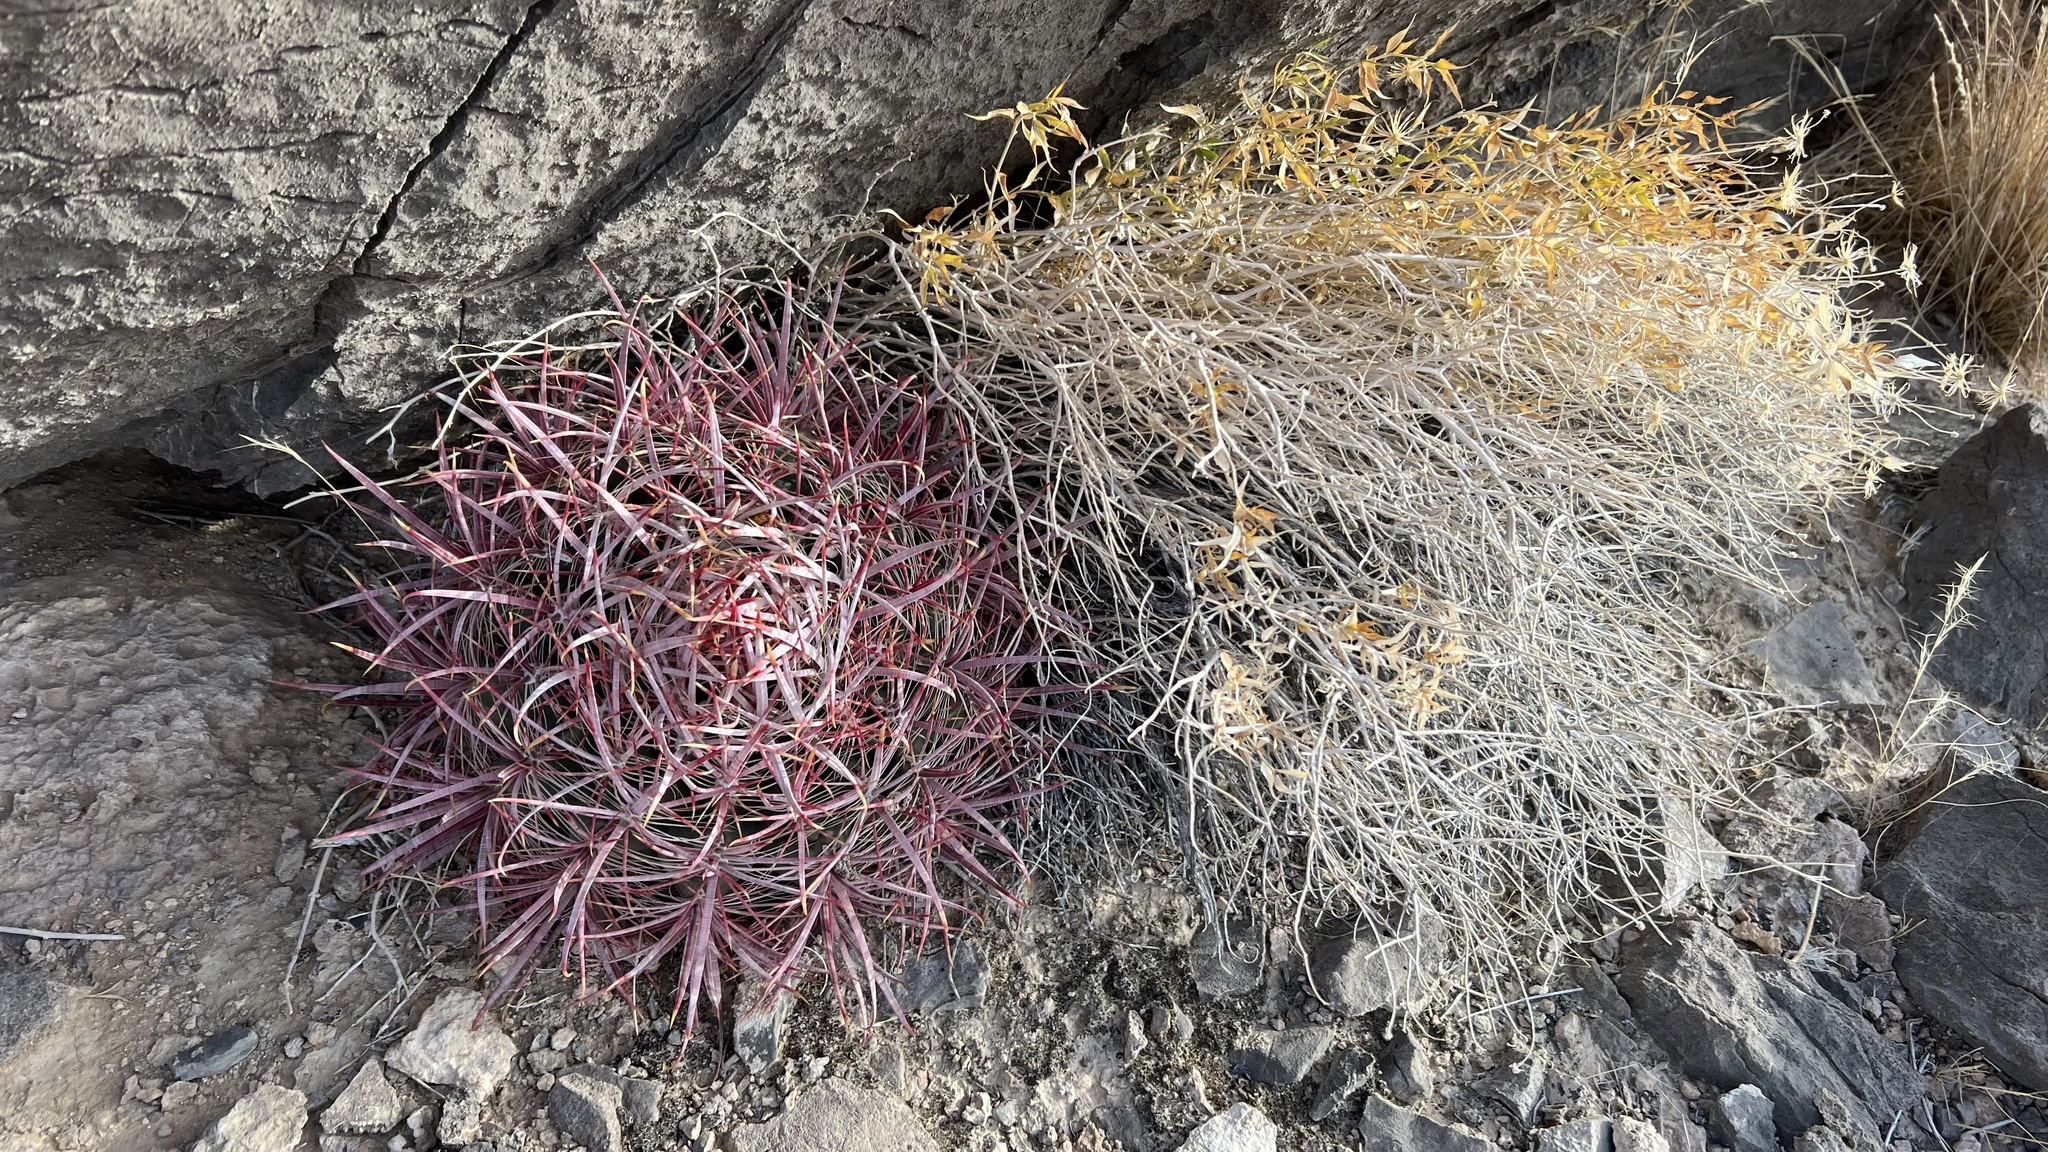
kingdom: Plantae
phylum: Tracheophyta
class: Magnoliopsida
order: Caryophyllales
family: Cactaceae
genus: Ferocactus
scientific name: Ferocactus cylindraceus
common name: California barrel cactus
